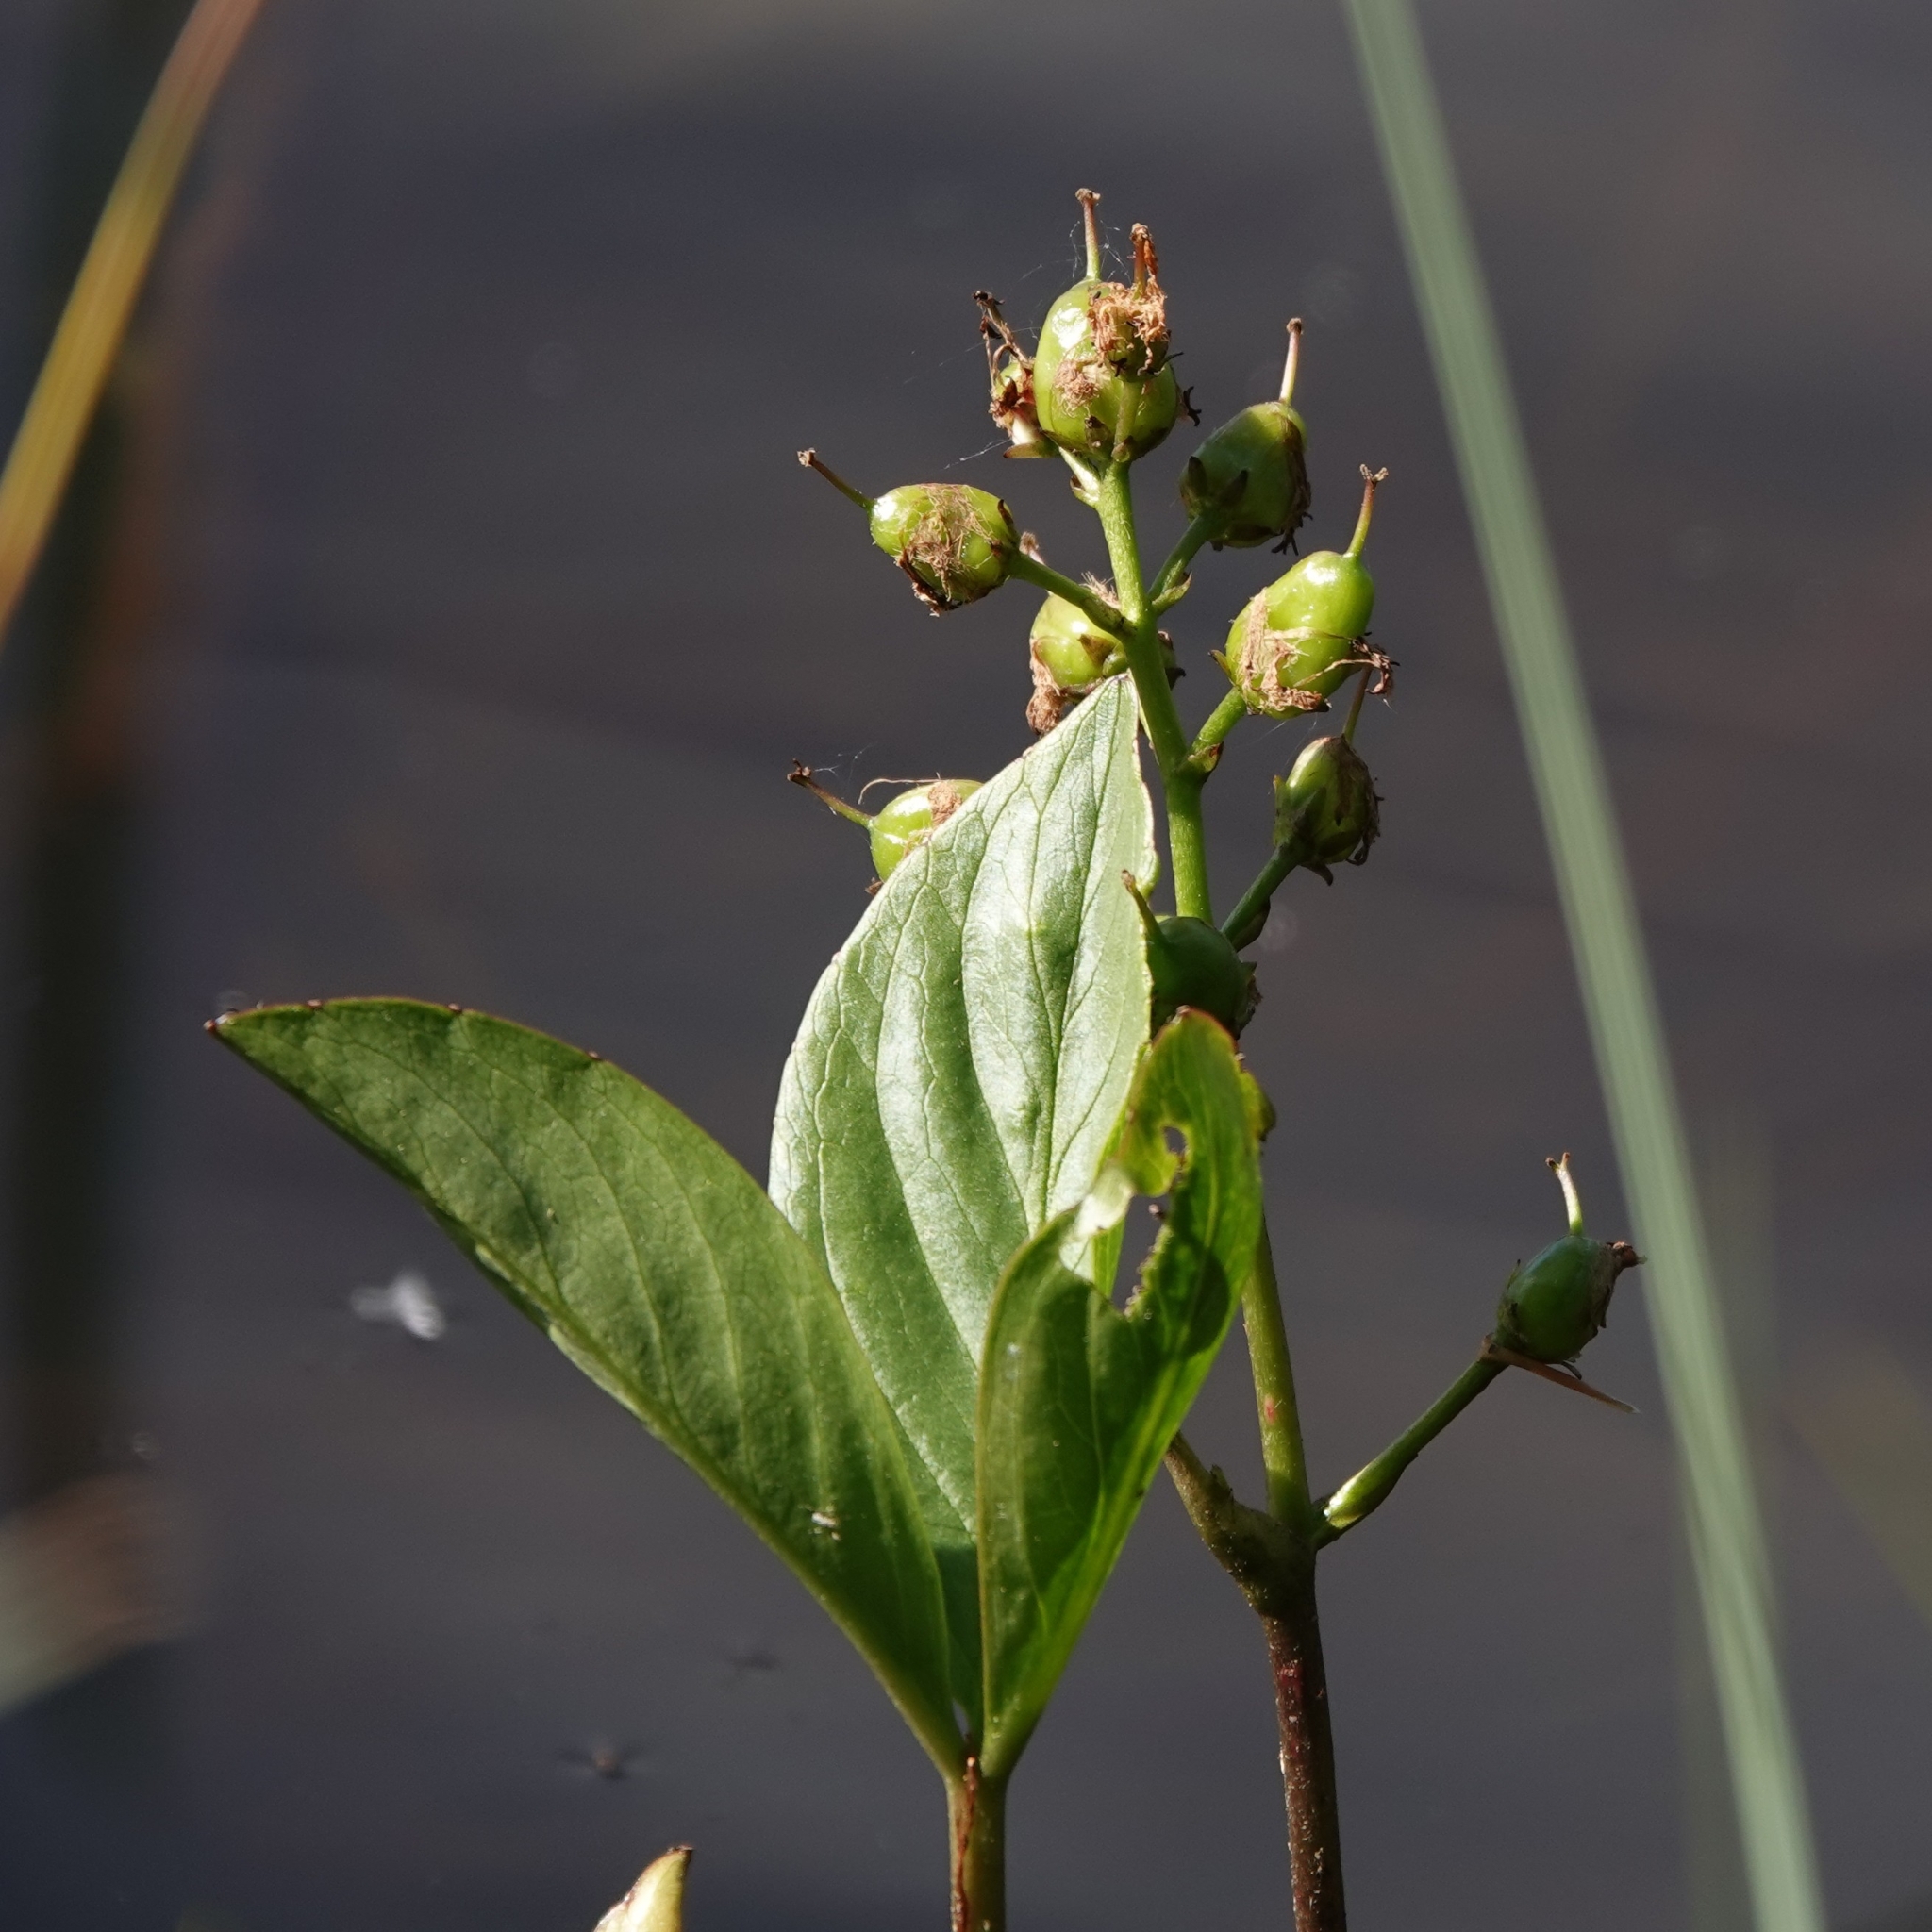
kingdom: Plantae
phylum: Tracheophyta
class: Magnoliopsida
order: Asterales
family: Menyanthaceae
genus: Menyanthes
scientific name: Menyanthes trifoliata
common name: Bogbean
